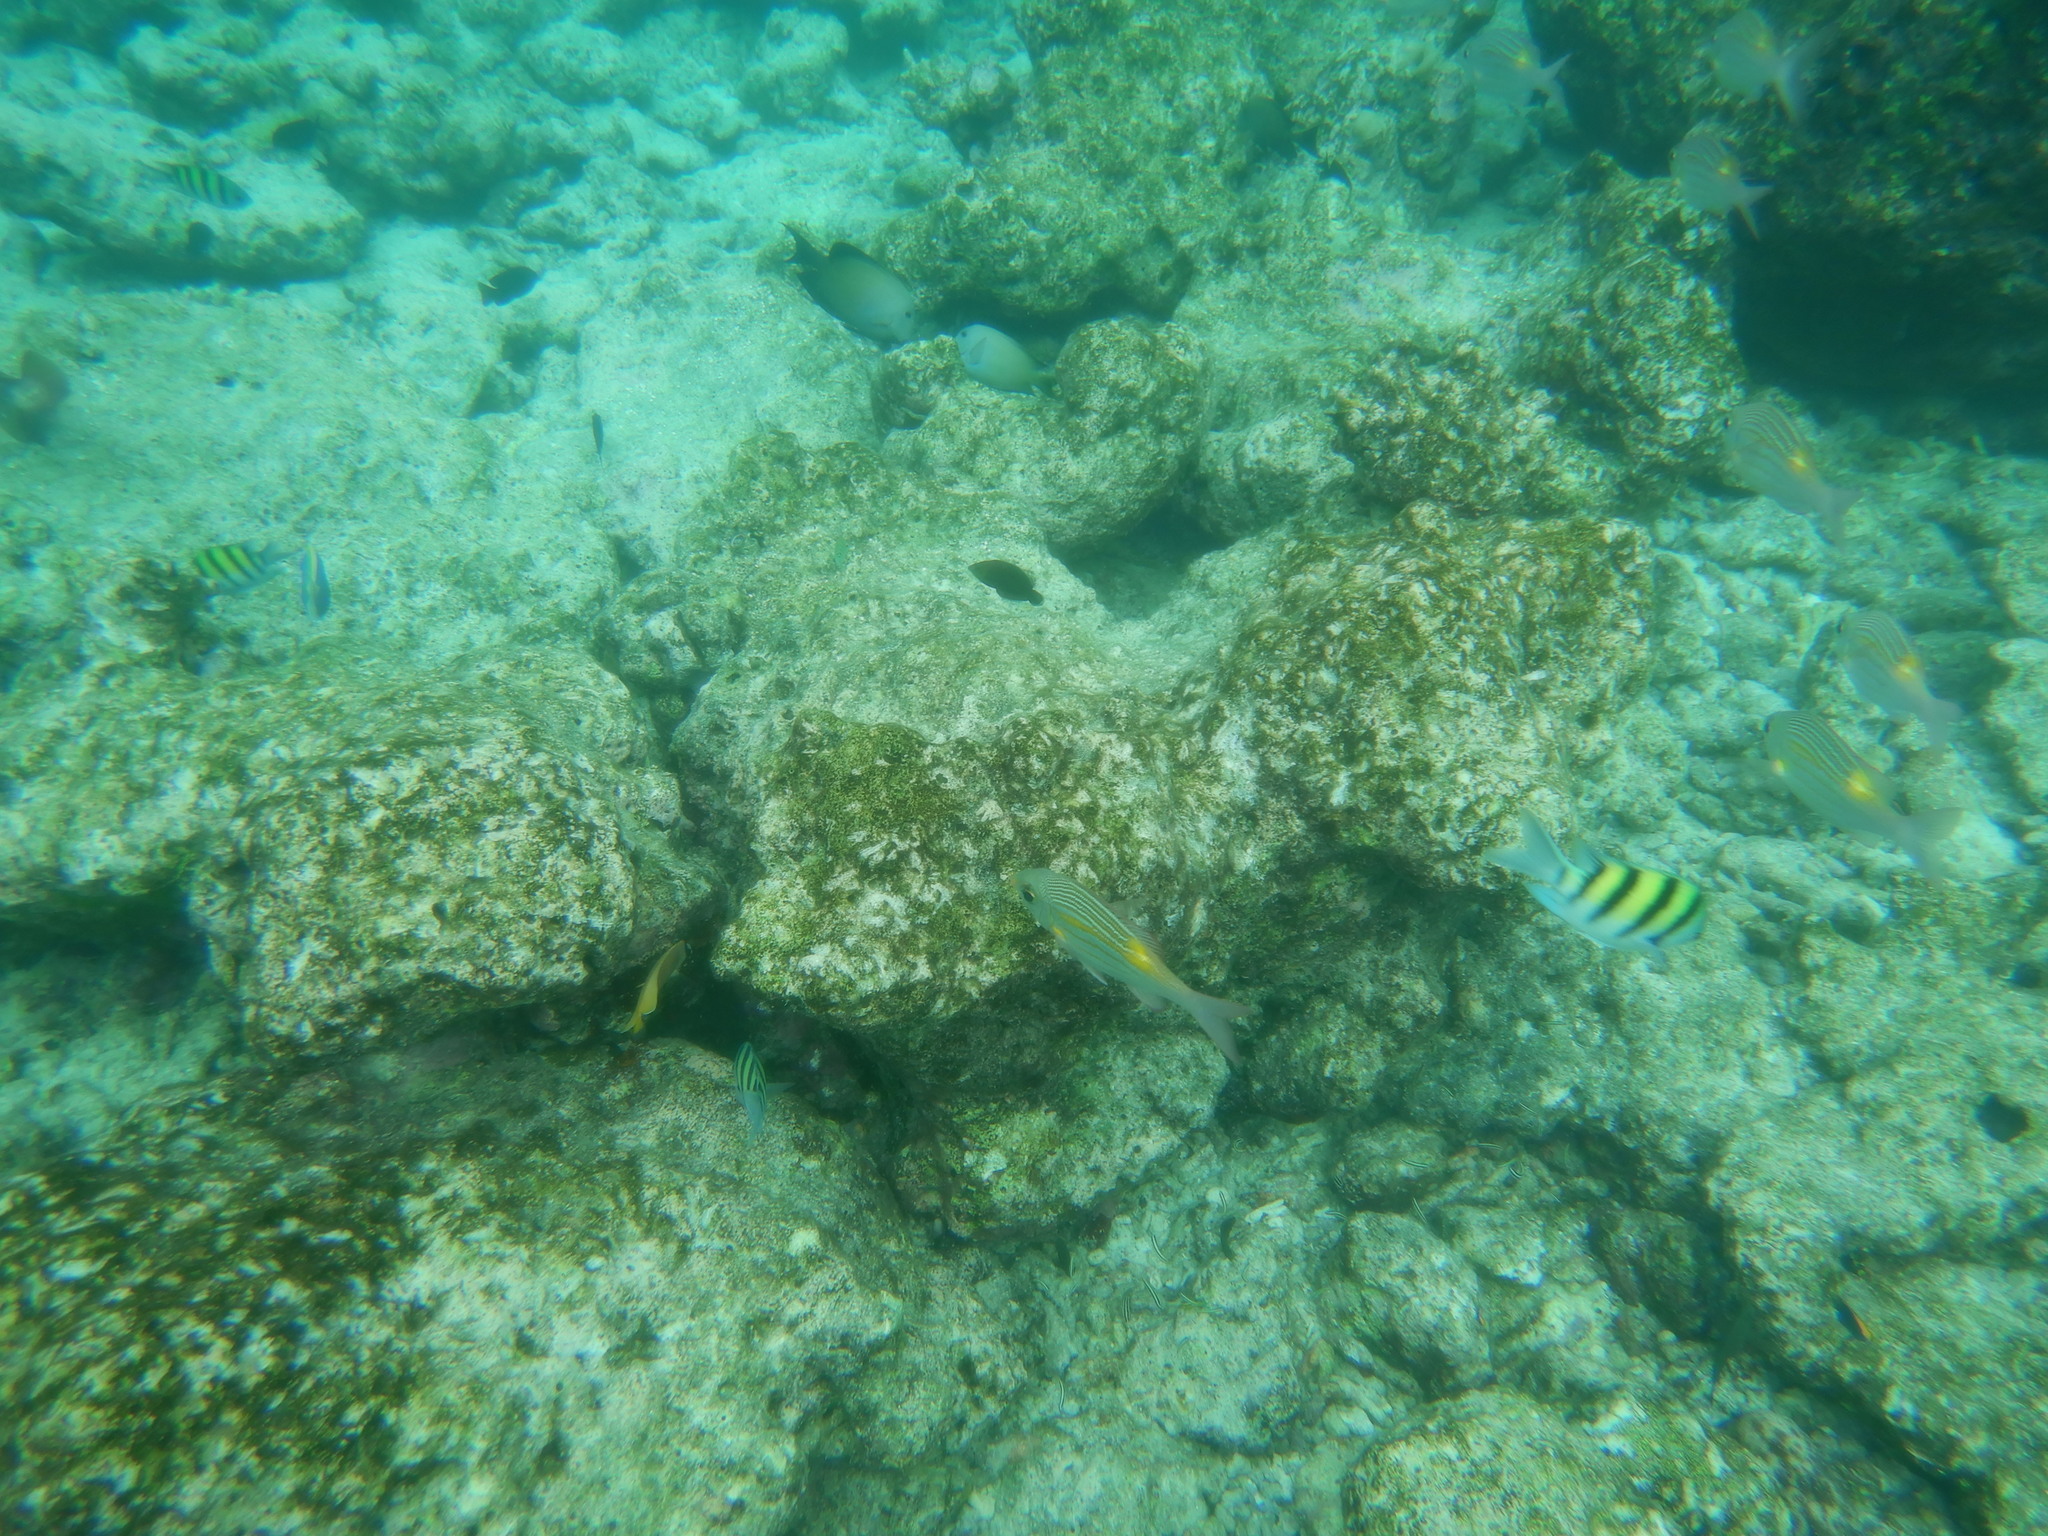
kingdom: Animalia
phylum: Chordata
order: Perciformes
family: Acanthuridae
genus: Ctenochaetus
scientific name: Ctenochaetus striatus
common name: Bristle-toothed surgeonfish
